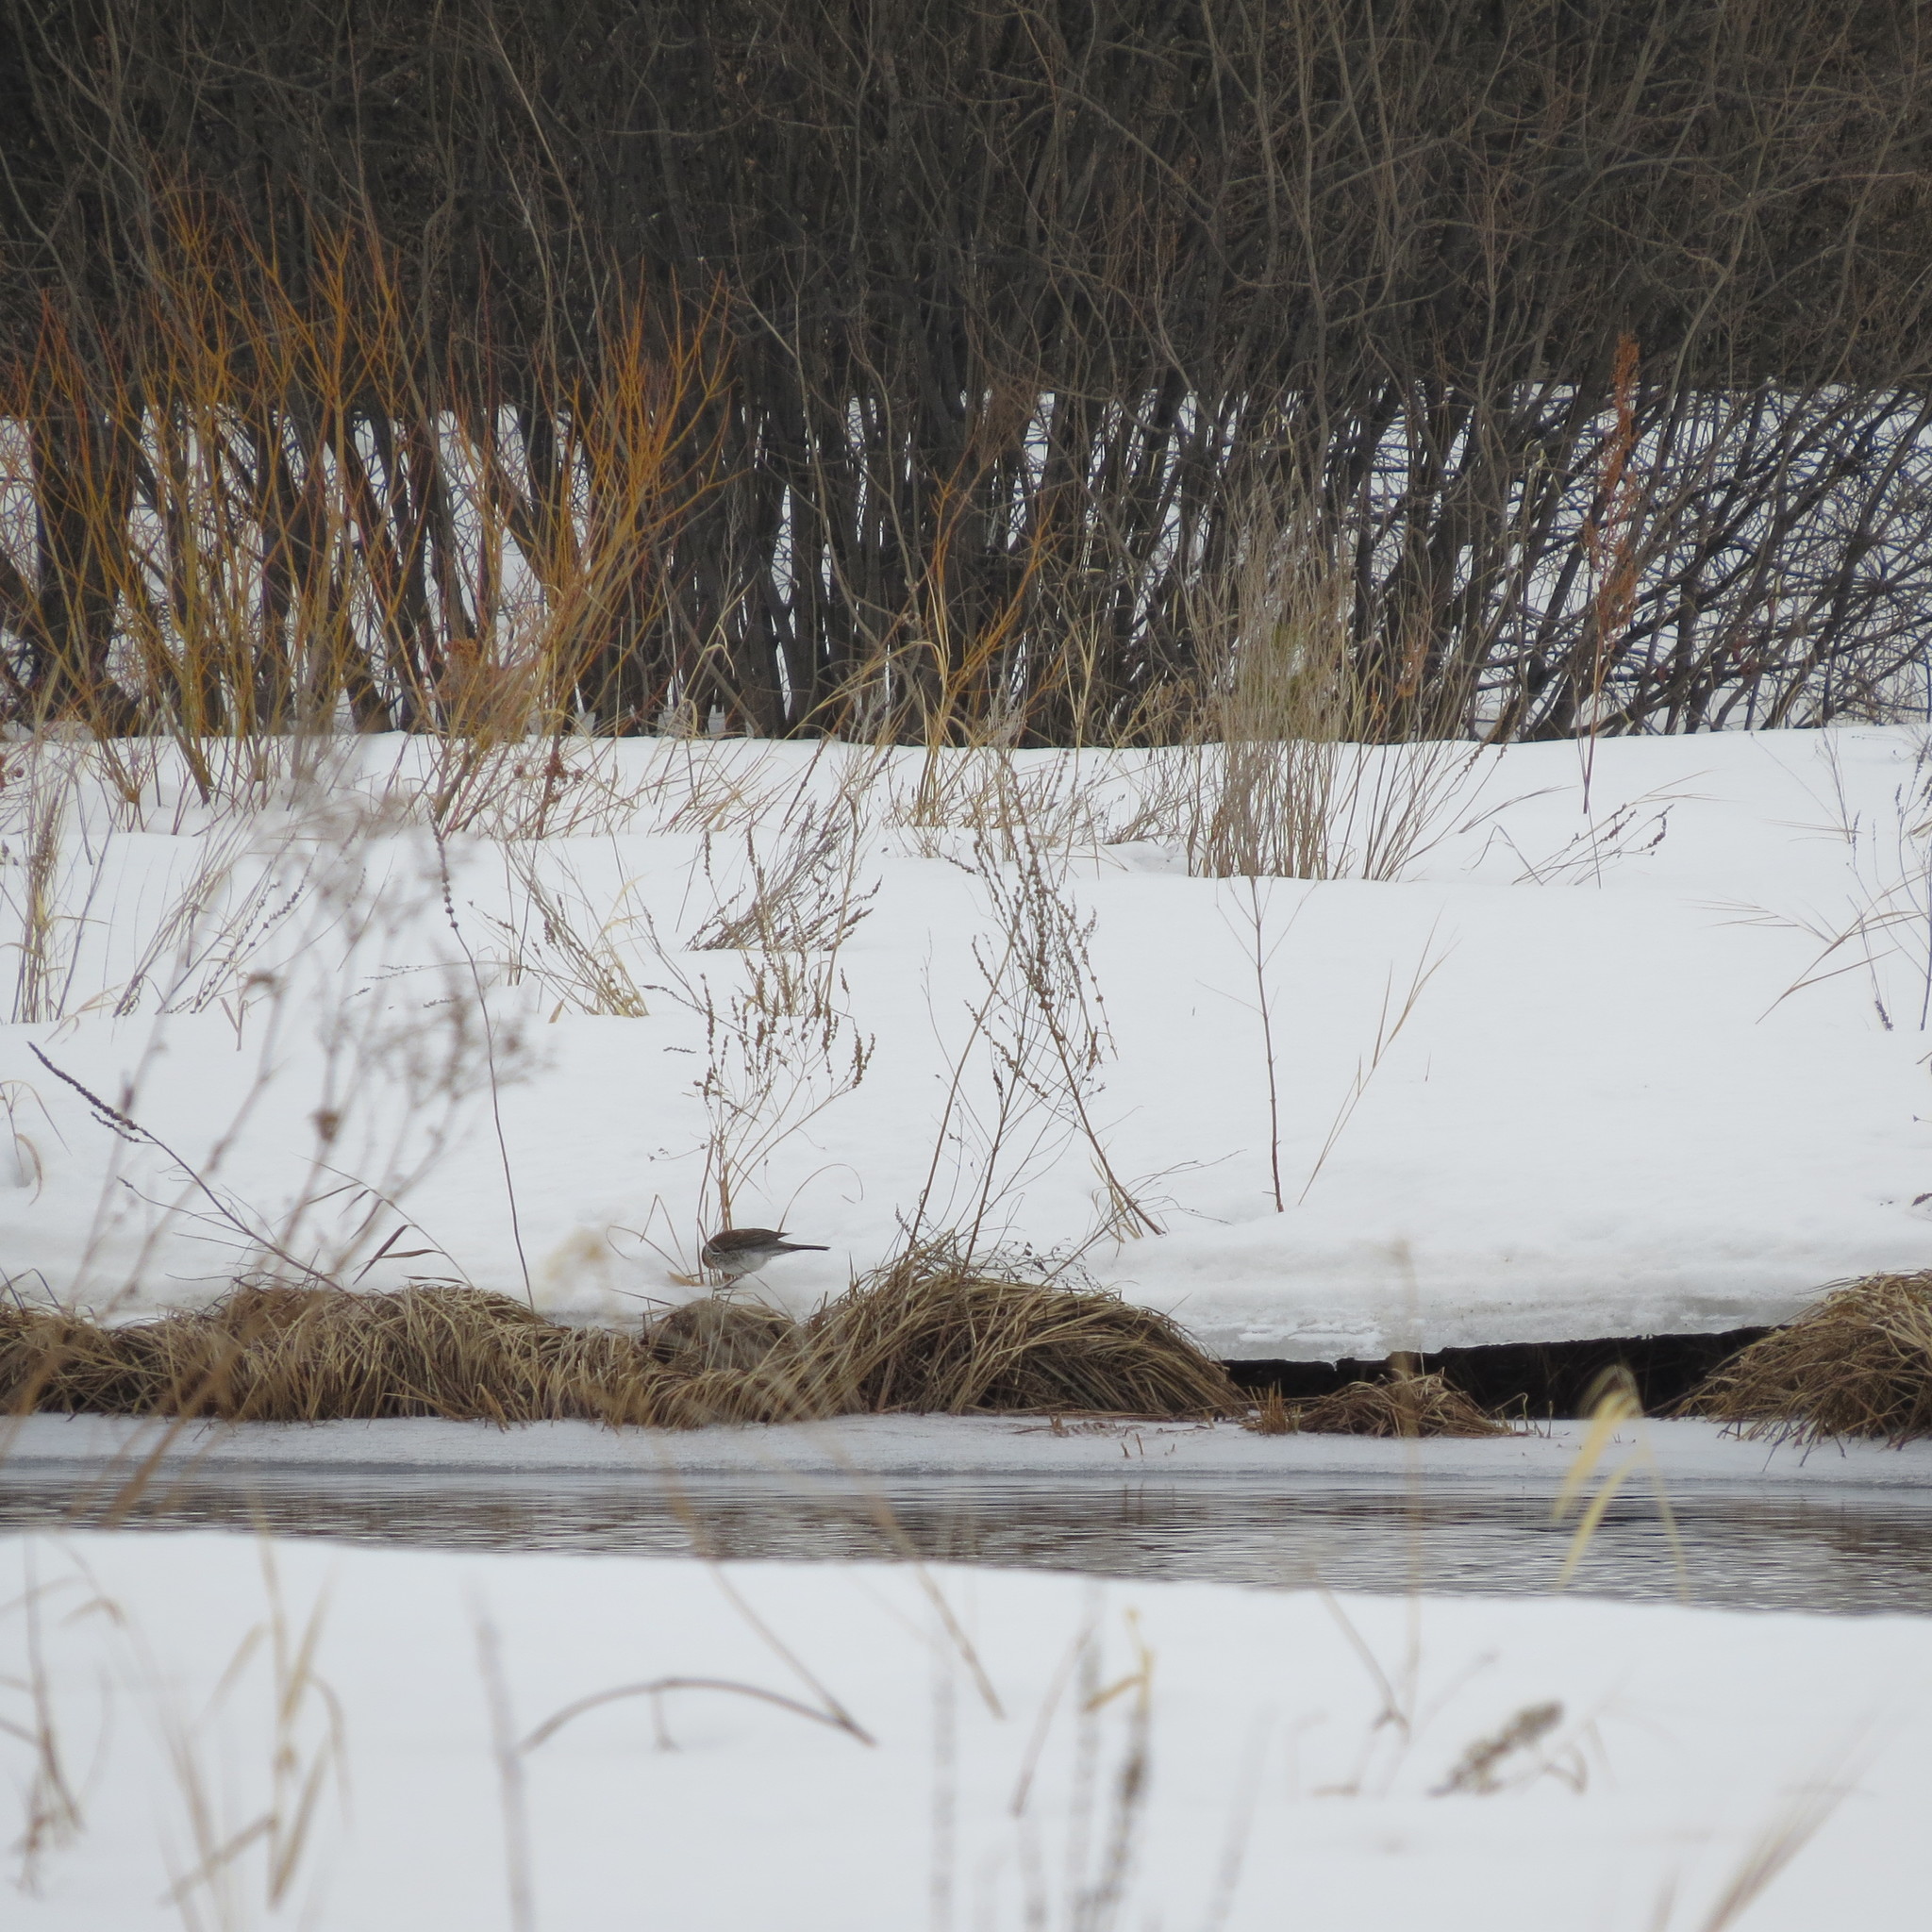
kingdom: Animalia
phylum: Chordata
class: Aves
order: Passeriformes
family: Turdidae
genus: Turdus
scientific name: Turdus pilaris
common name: Fieldfare
